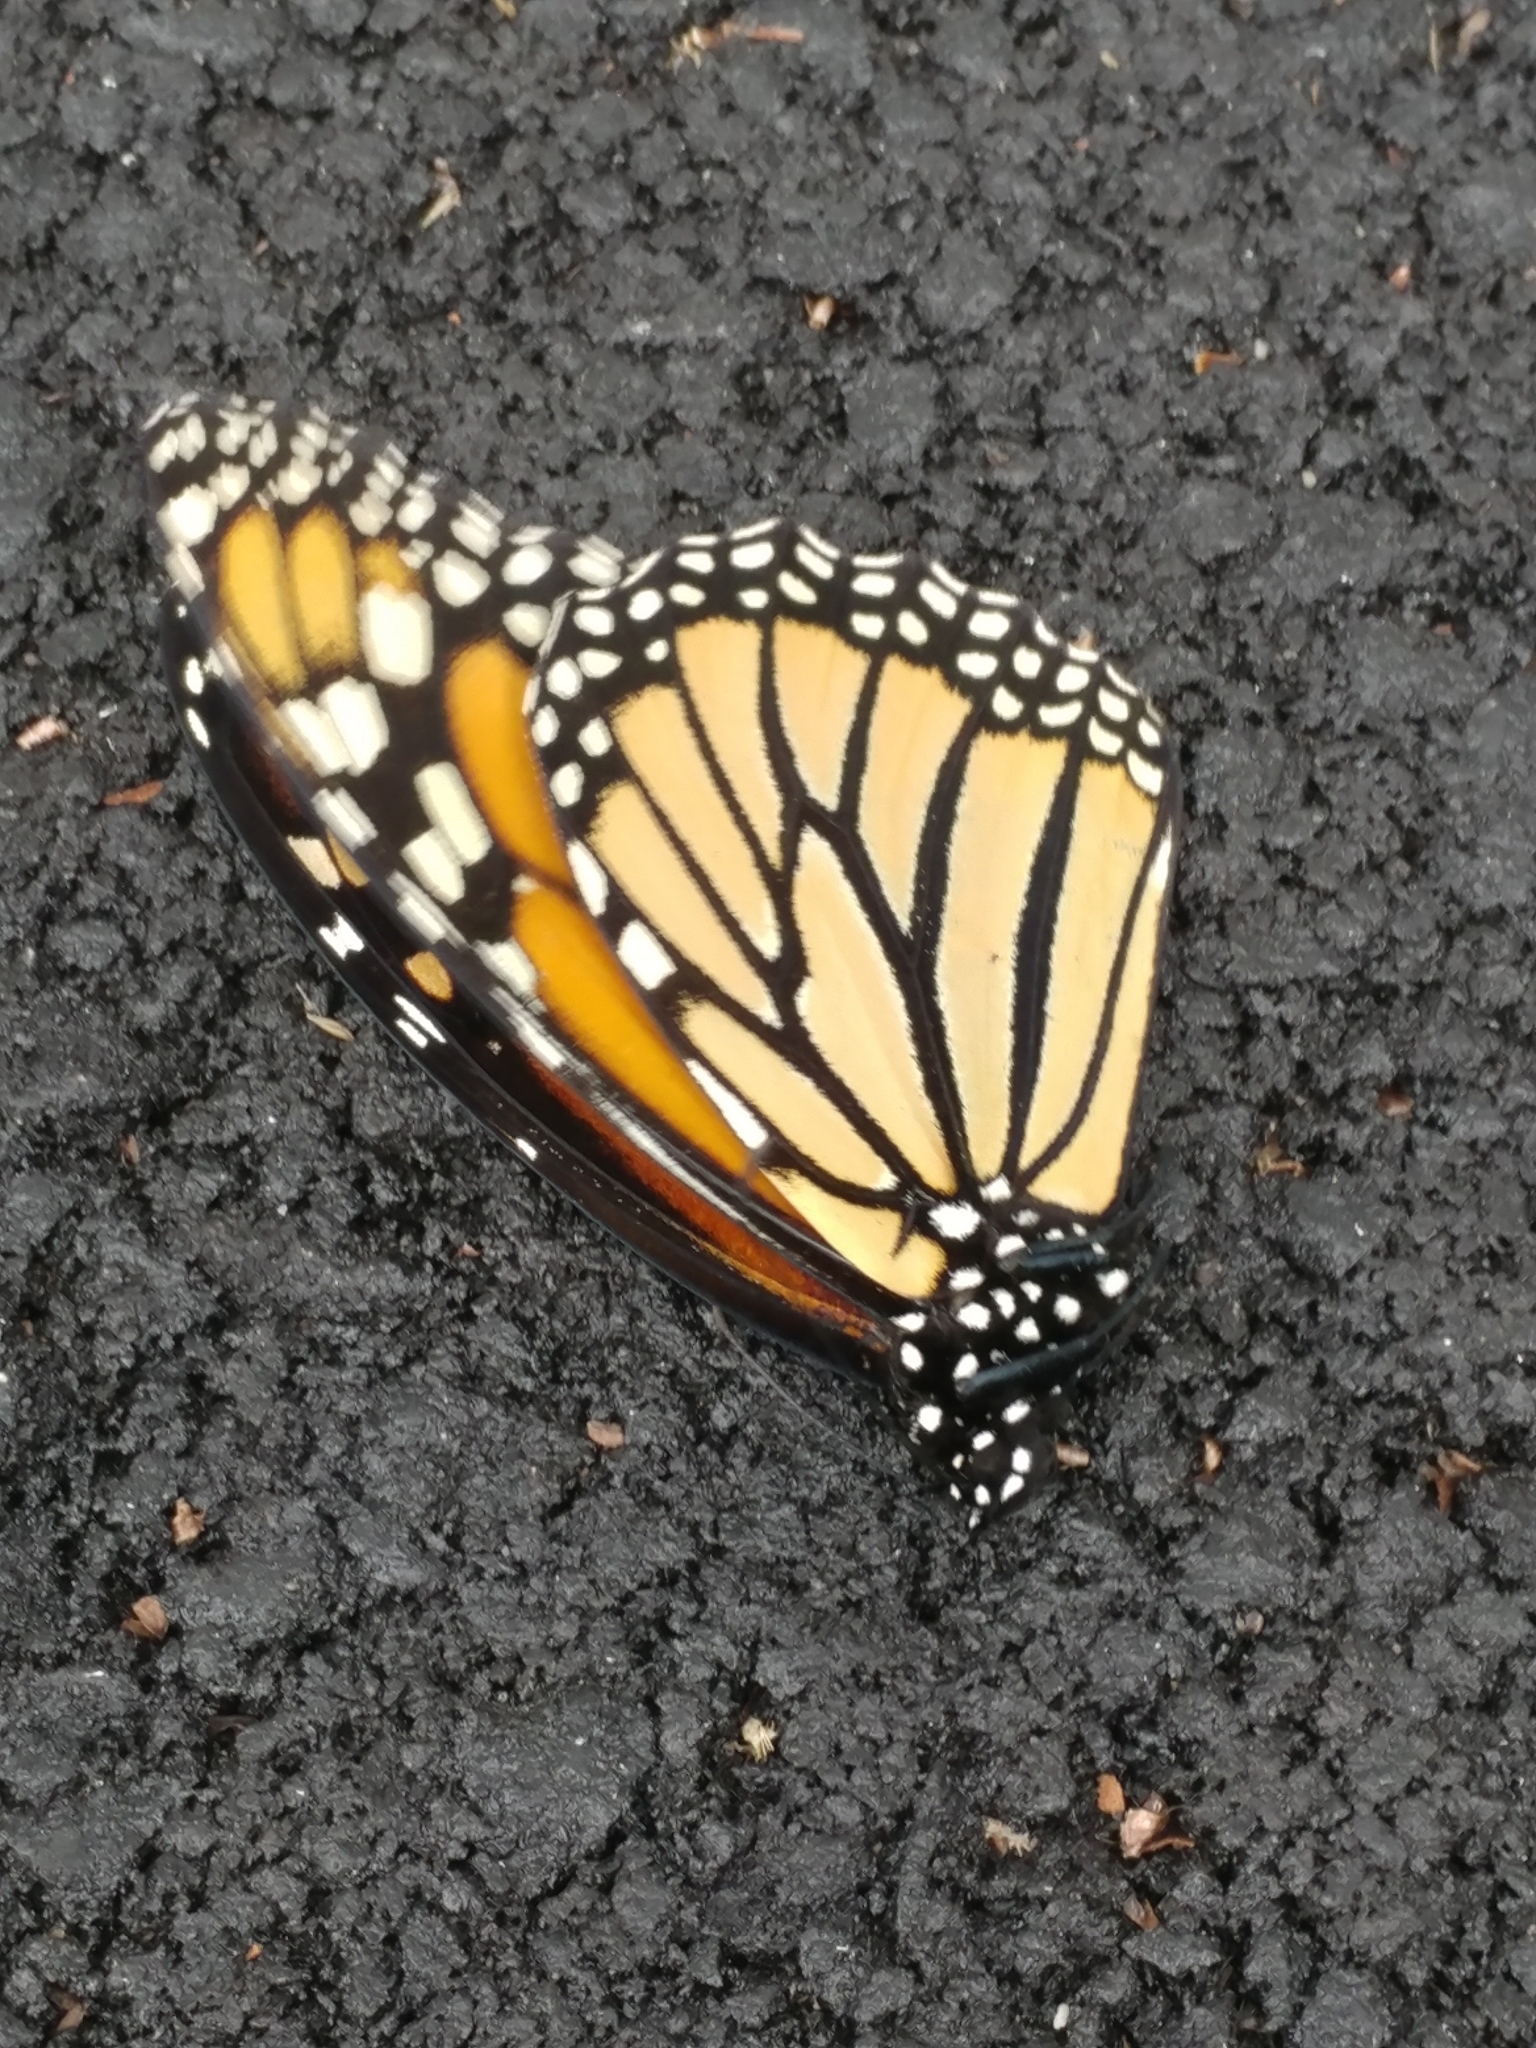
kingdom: Animalia
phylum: Arthropoda
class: Insecta
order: Lepidoptera
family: Nymphalidae
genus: Danaus
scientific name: Danaus plexippus
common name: Monarch
